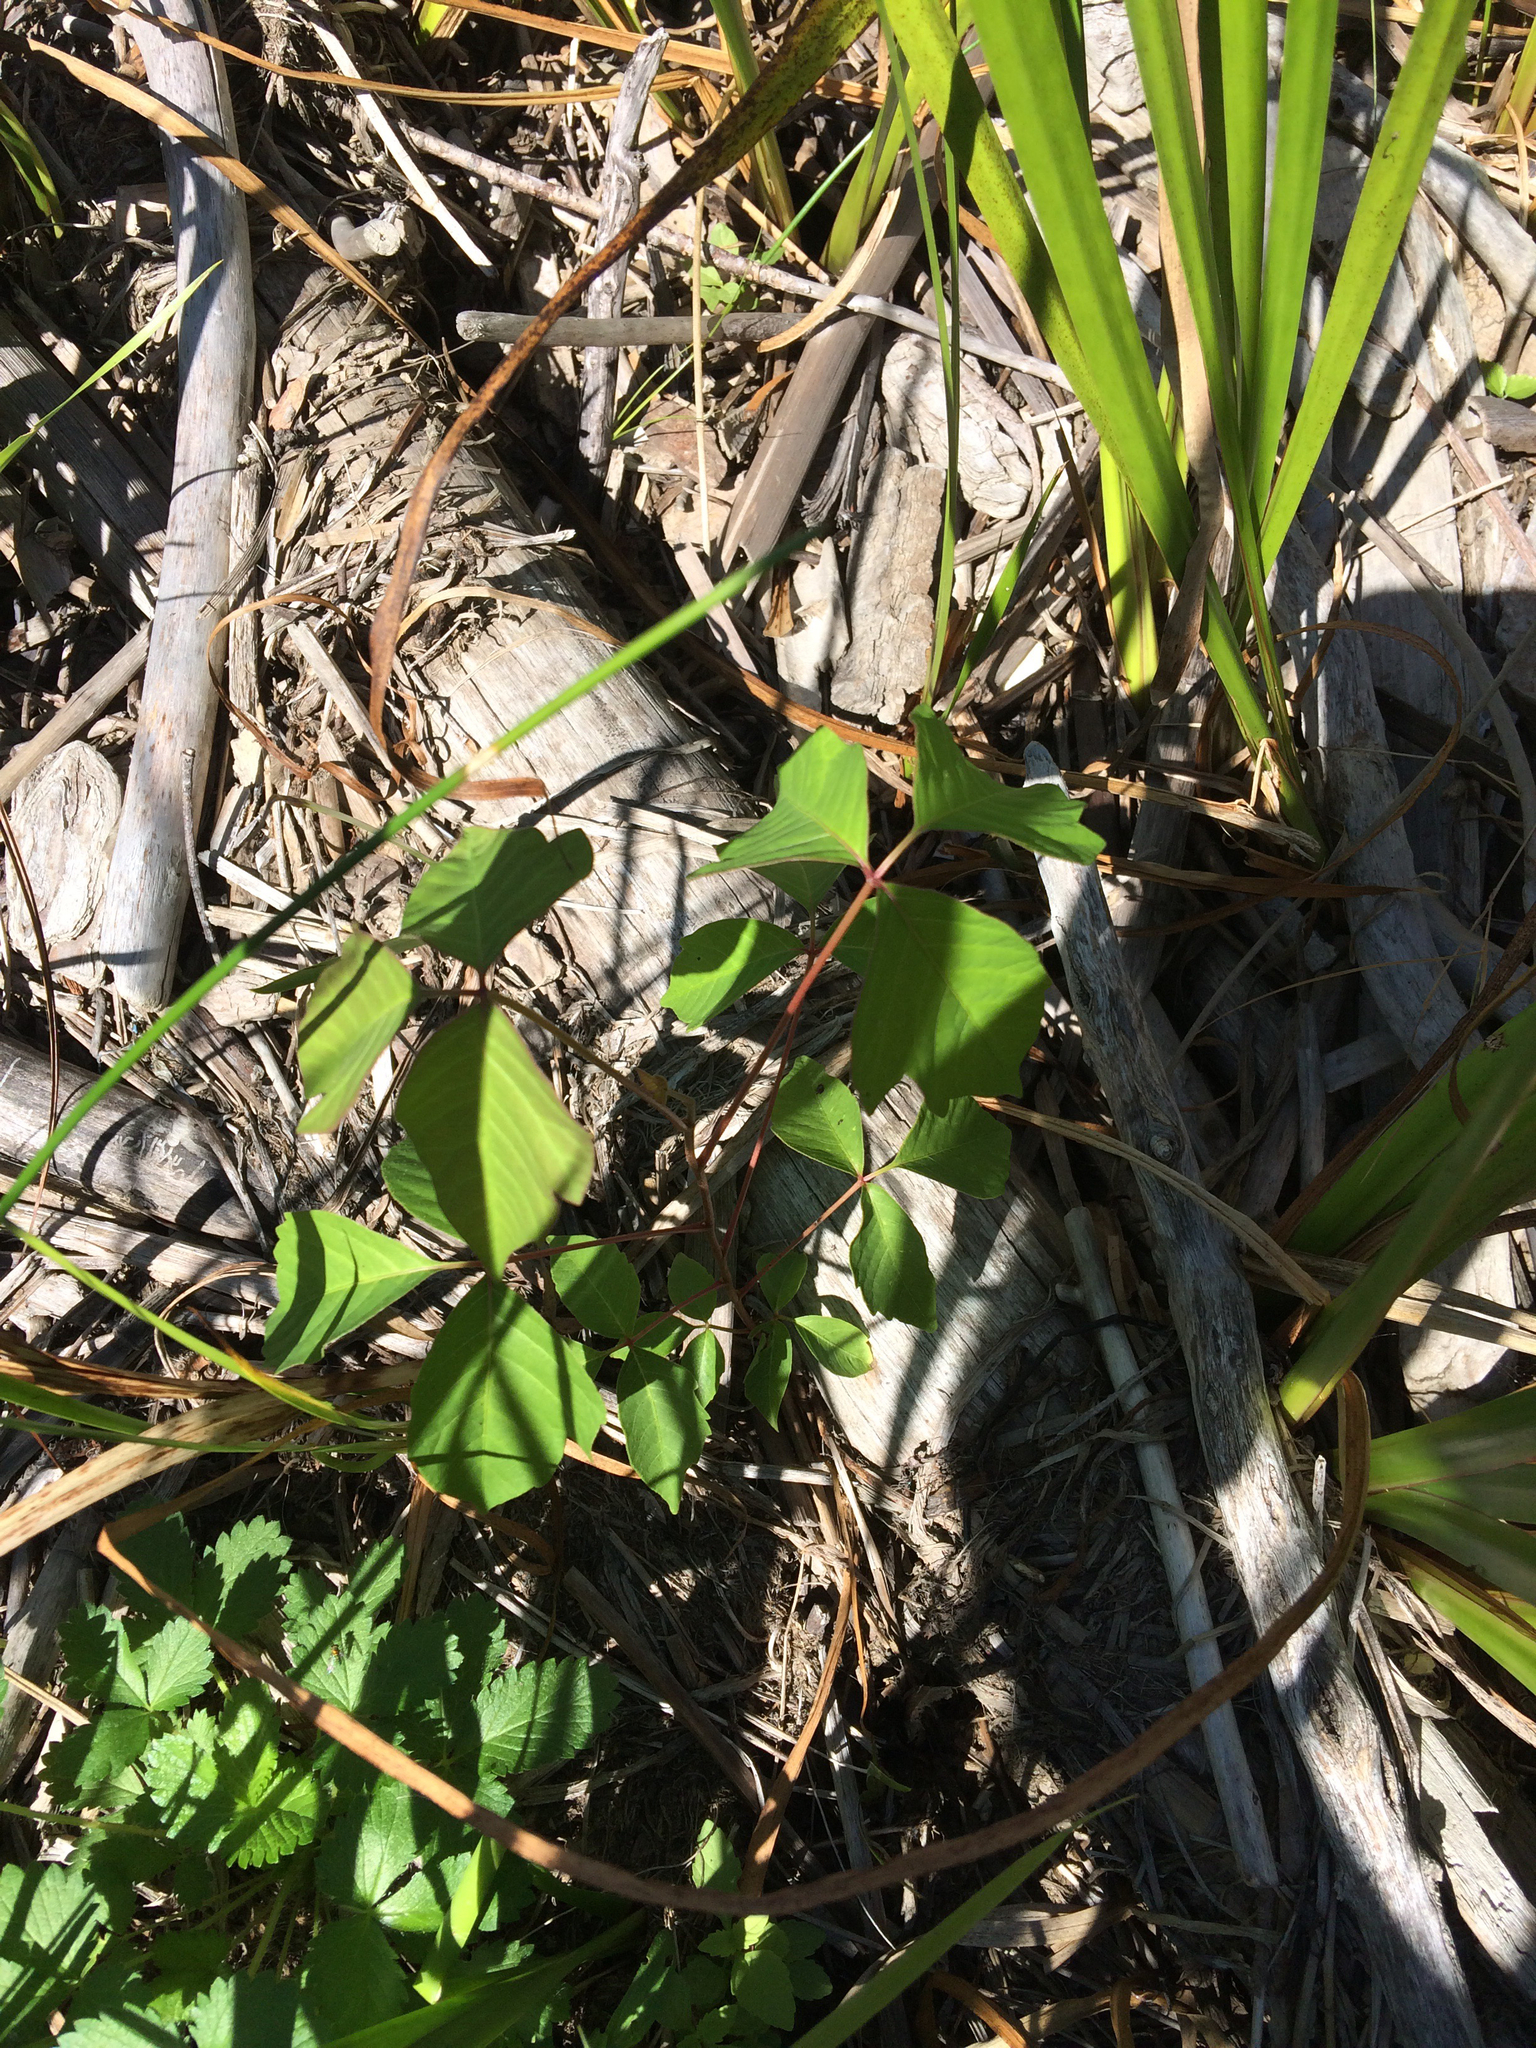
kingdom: Plantae
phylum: Tracheophyta
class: Magnoliopsida
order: Sapindales
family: Anacardiaceae
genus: Toxicodendron
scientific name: Toxicodendron radicans
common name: Poison ivy
